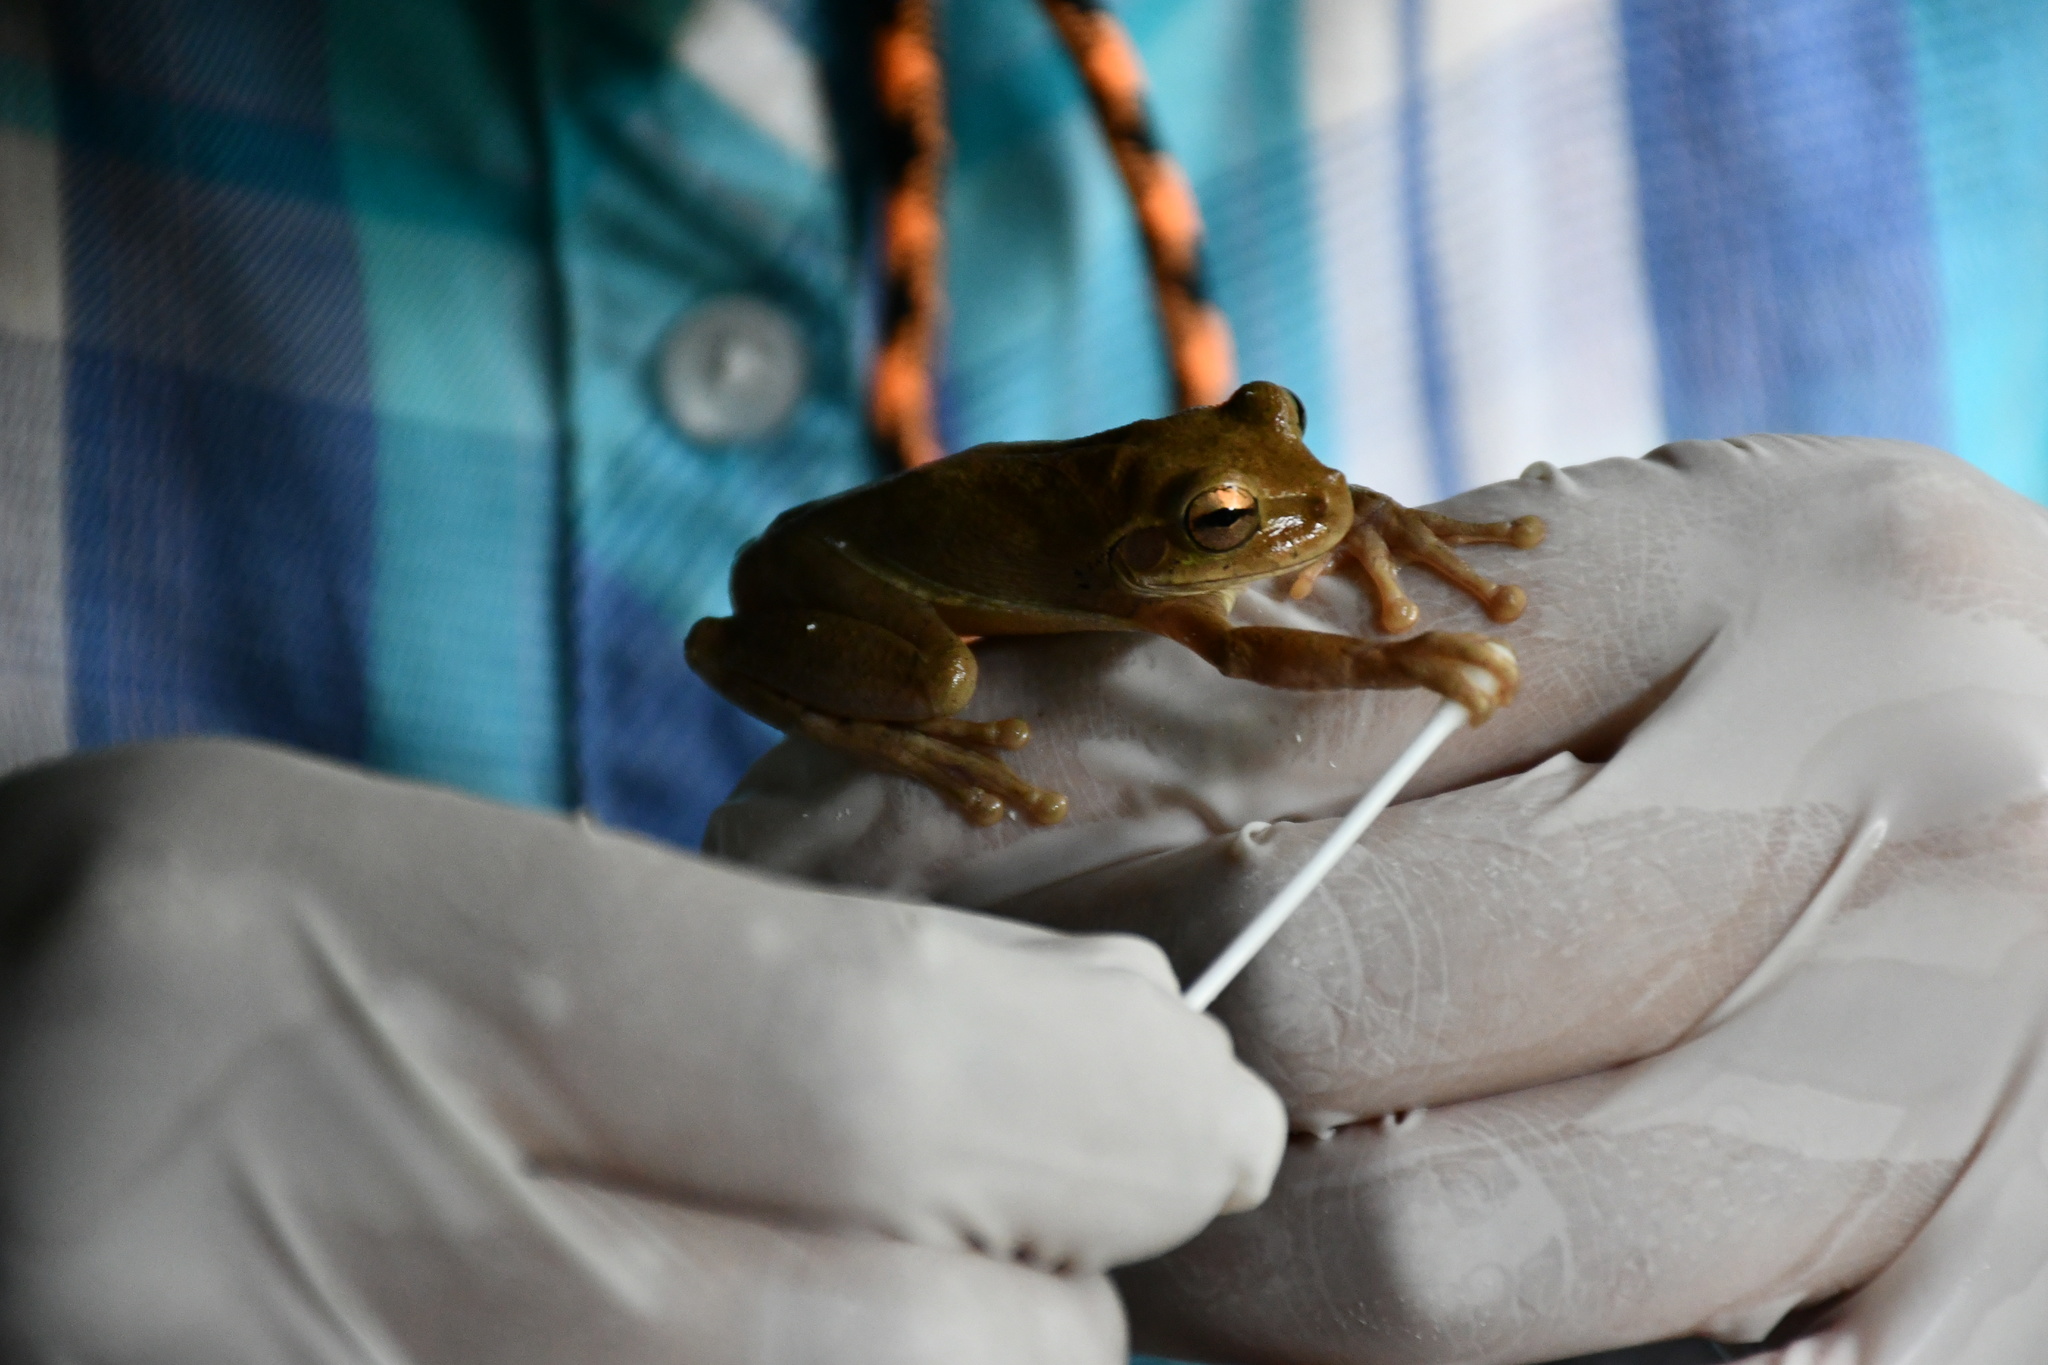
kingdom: Animalia
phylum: Chordata
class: Amphibia
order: Anura
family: Hylidae
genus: Smilisca
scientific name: Smilisca baudinii
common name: Mexican smilisca
